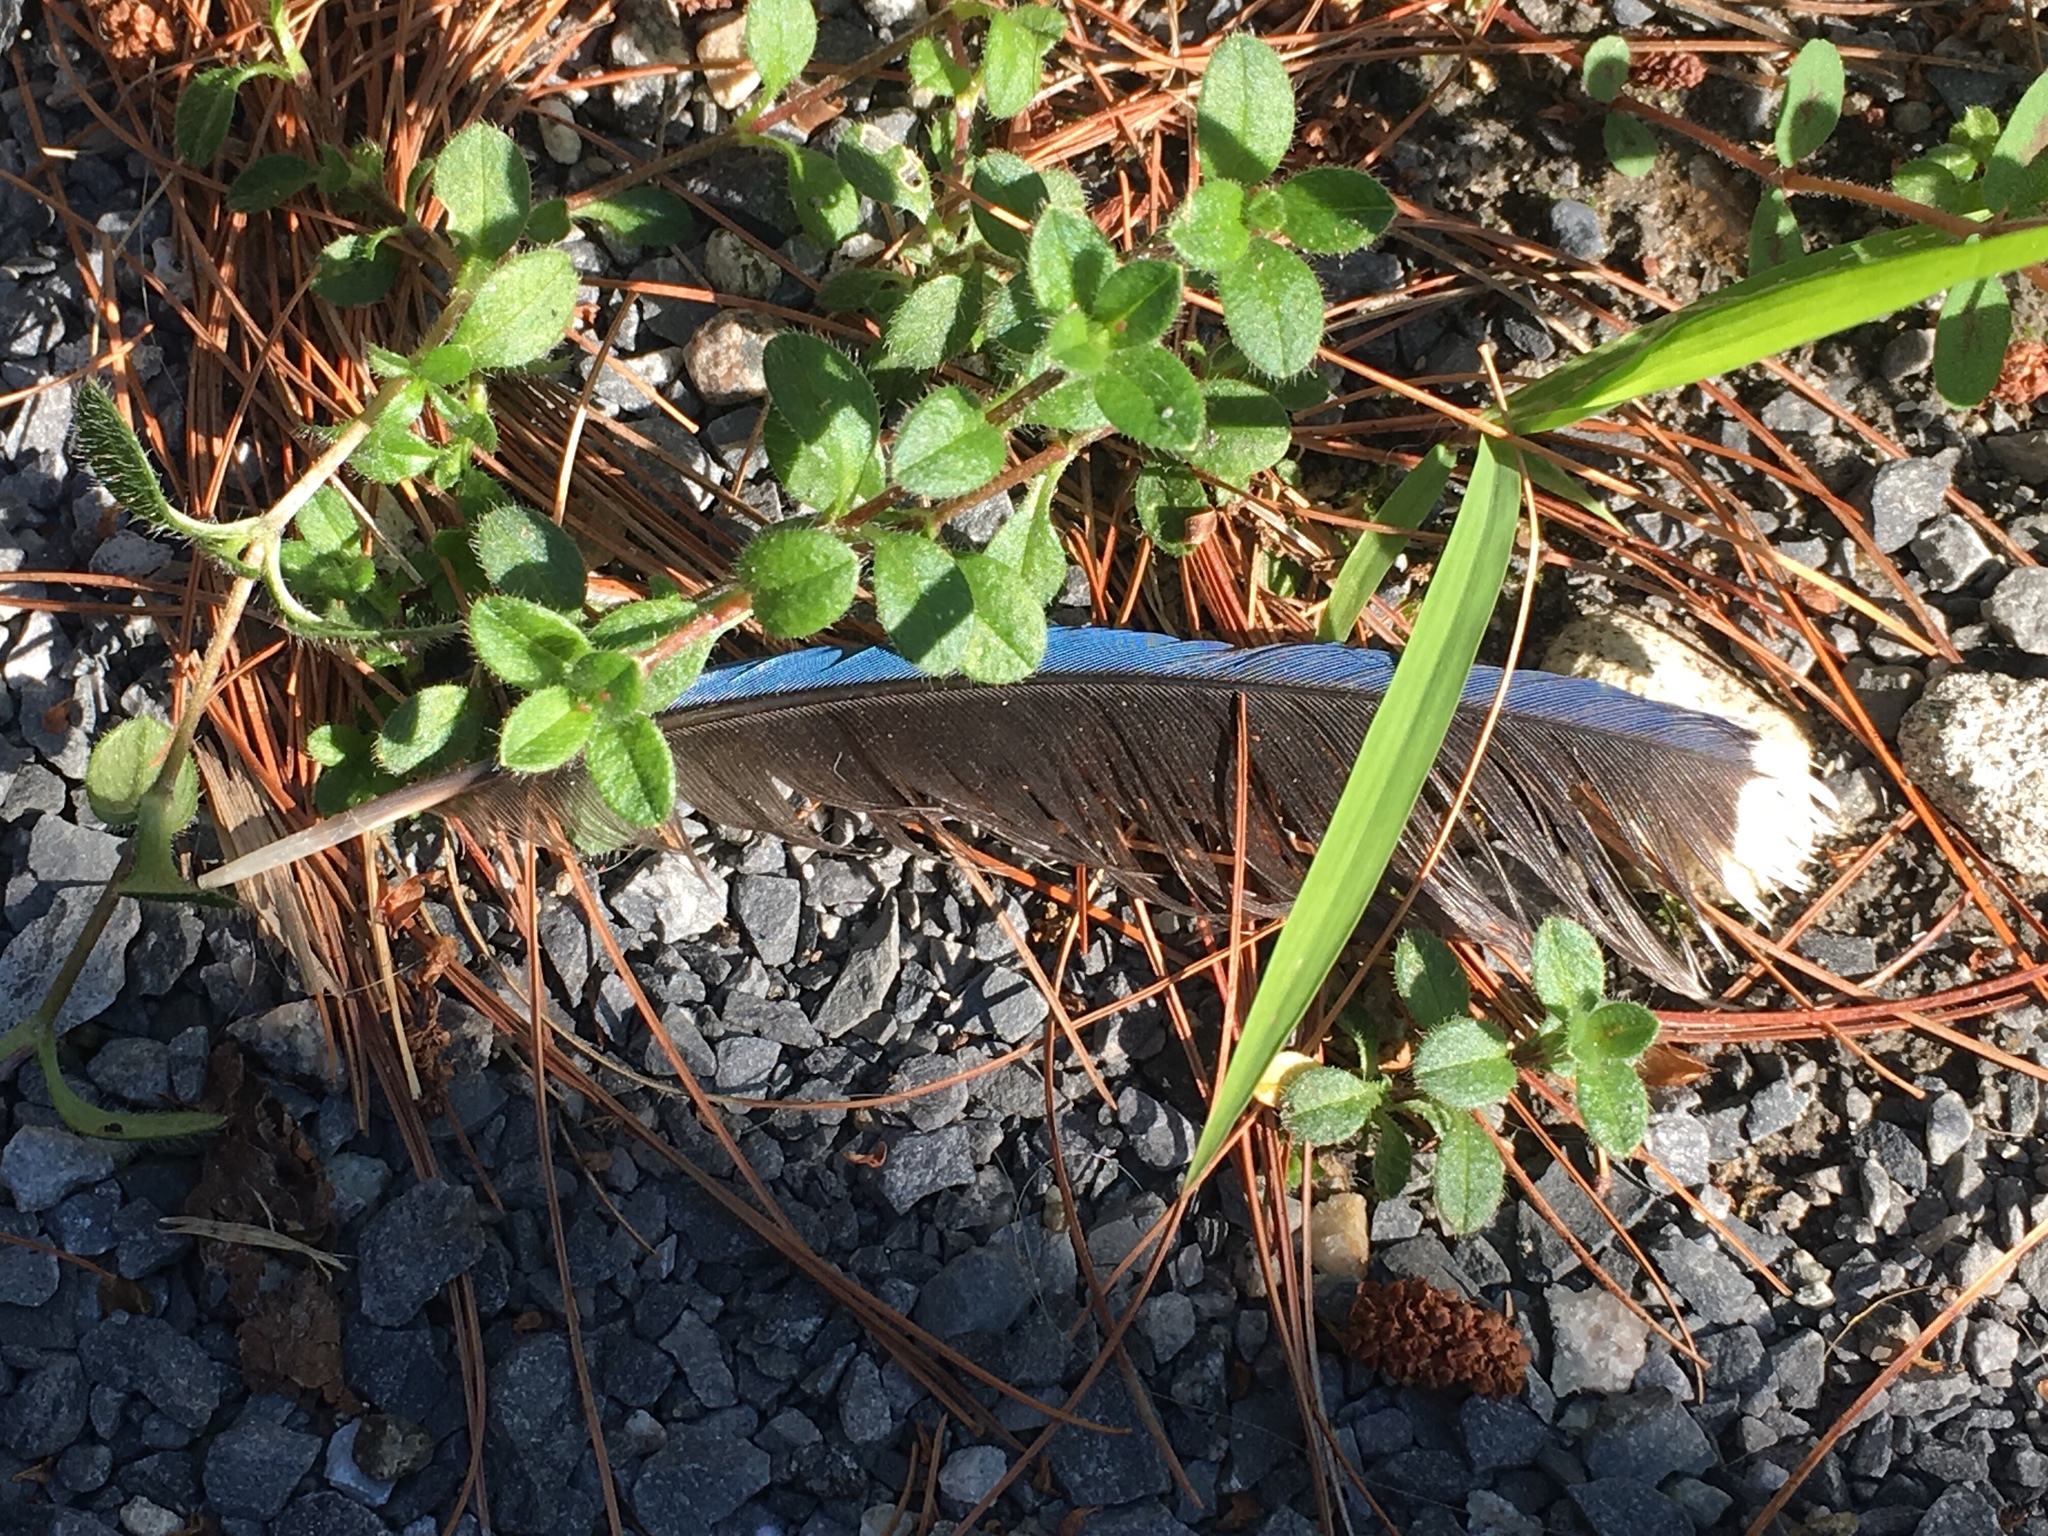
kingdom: Animalia
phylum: Chordata
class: Aves
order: Passeriformes
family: Corvidae
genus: Cyanocitta
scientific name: Cyanocitta cristata
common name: Blue jay
